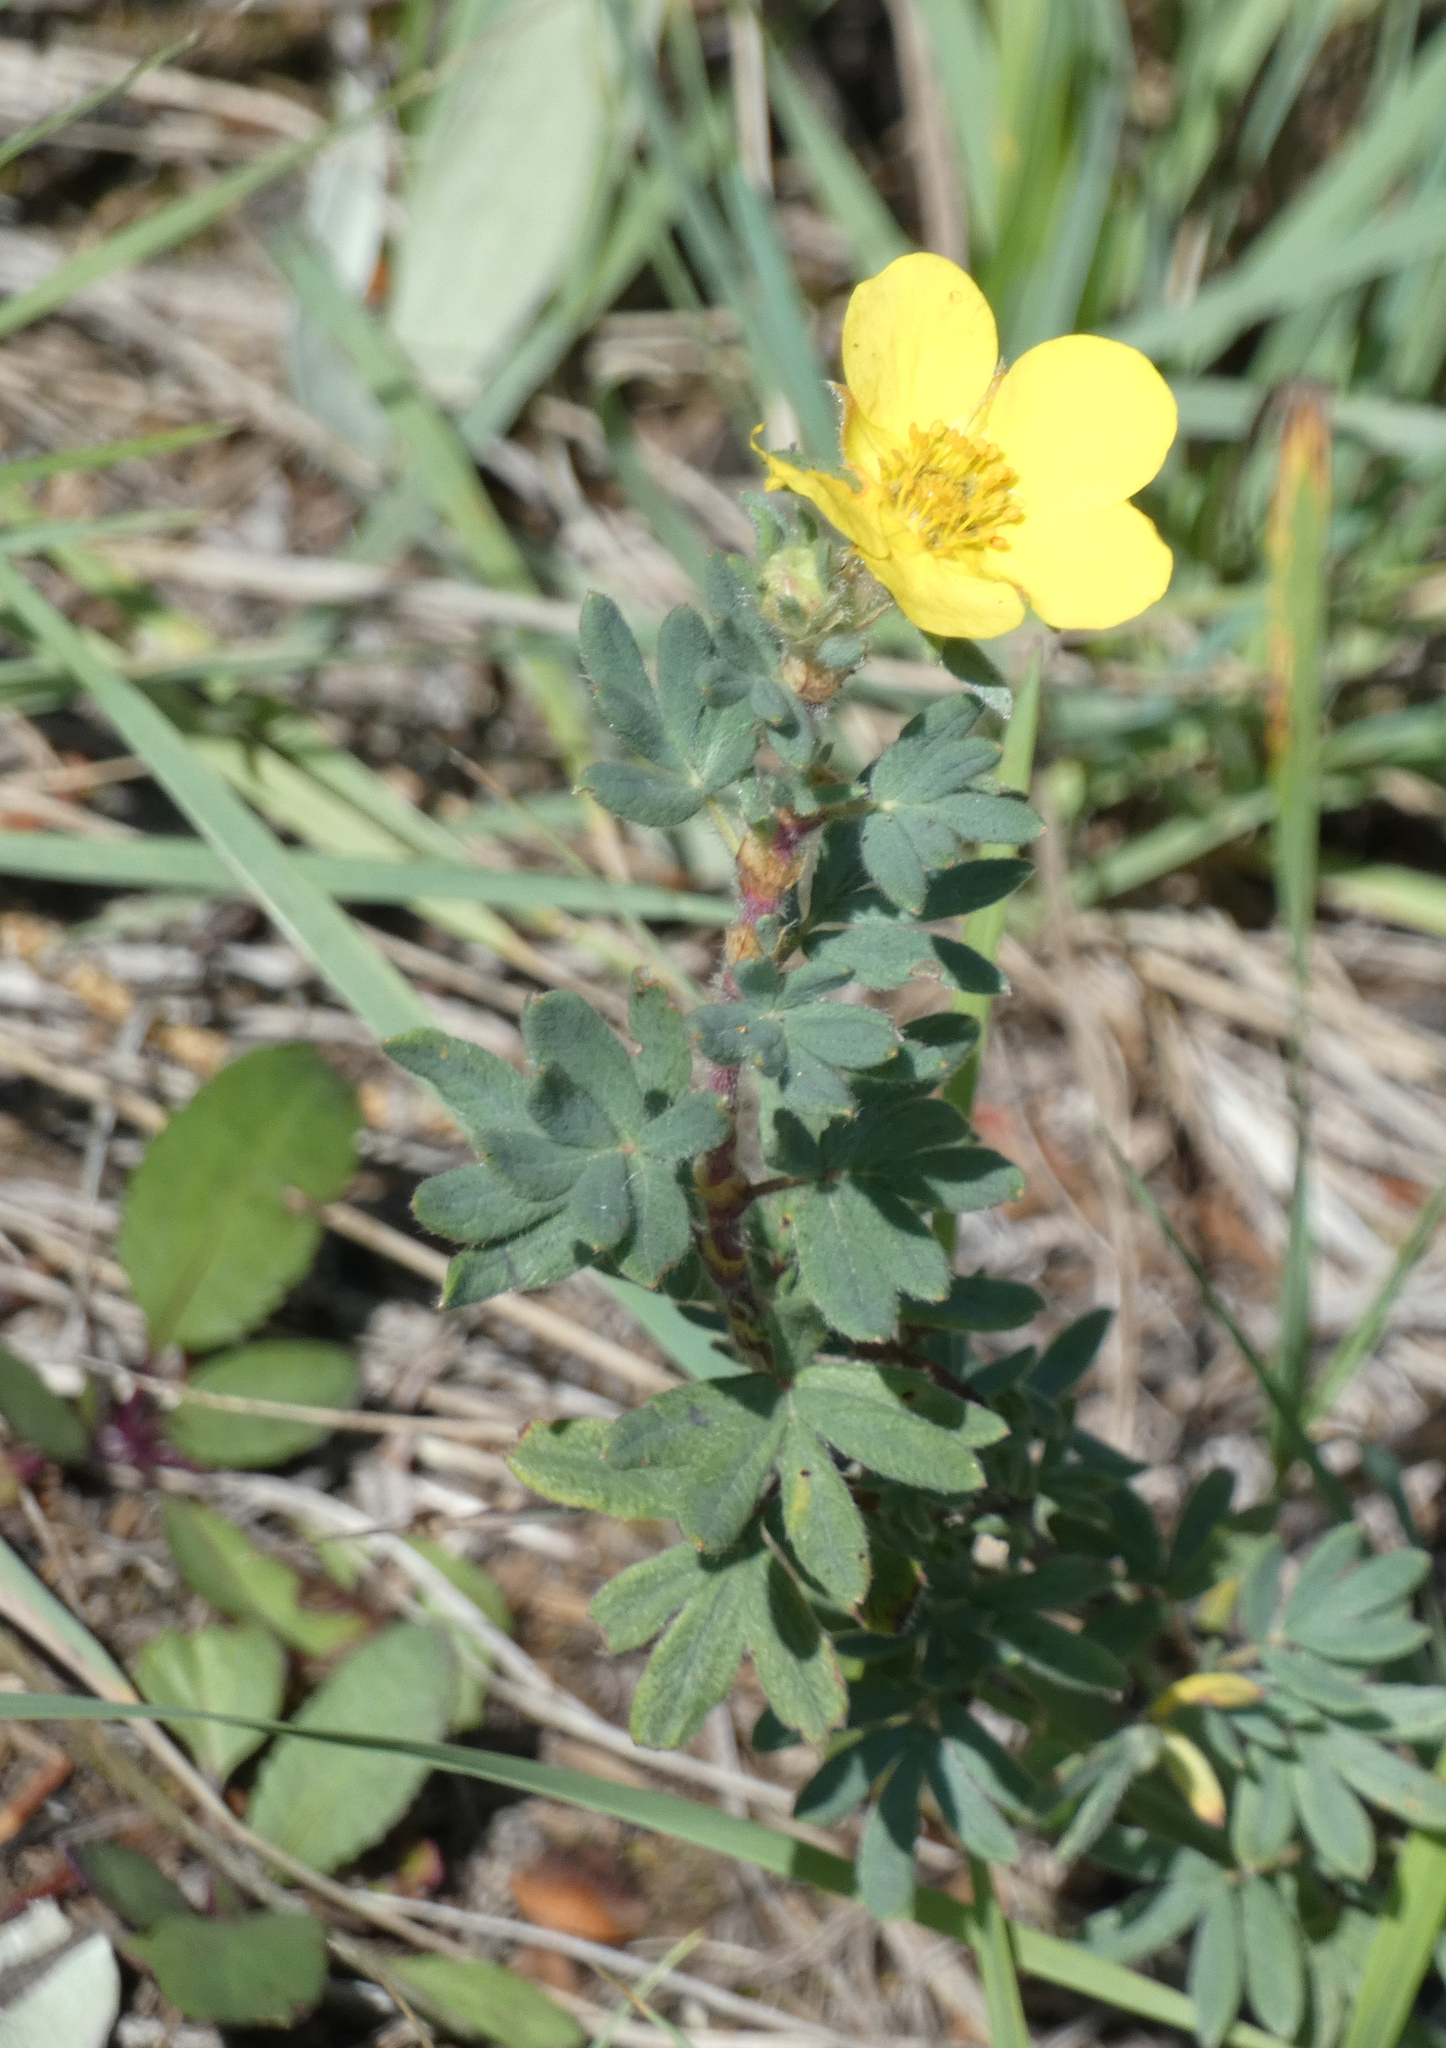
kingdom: Plantae
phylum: Tracheophyta
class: Magnoliopsida
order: Rosales
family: Rosaceae
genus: Dasiphora
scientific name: Dasiphora fruticosa
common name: Shrubby cinquefoil
